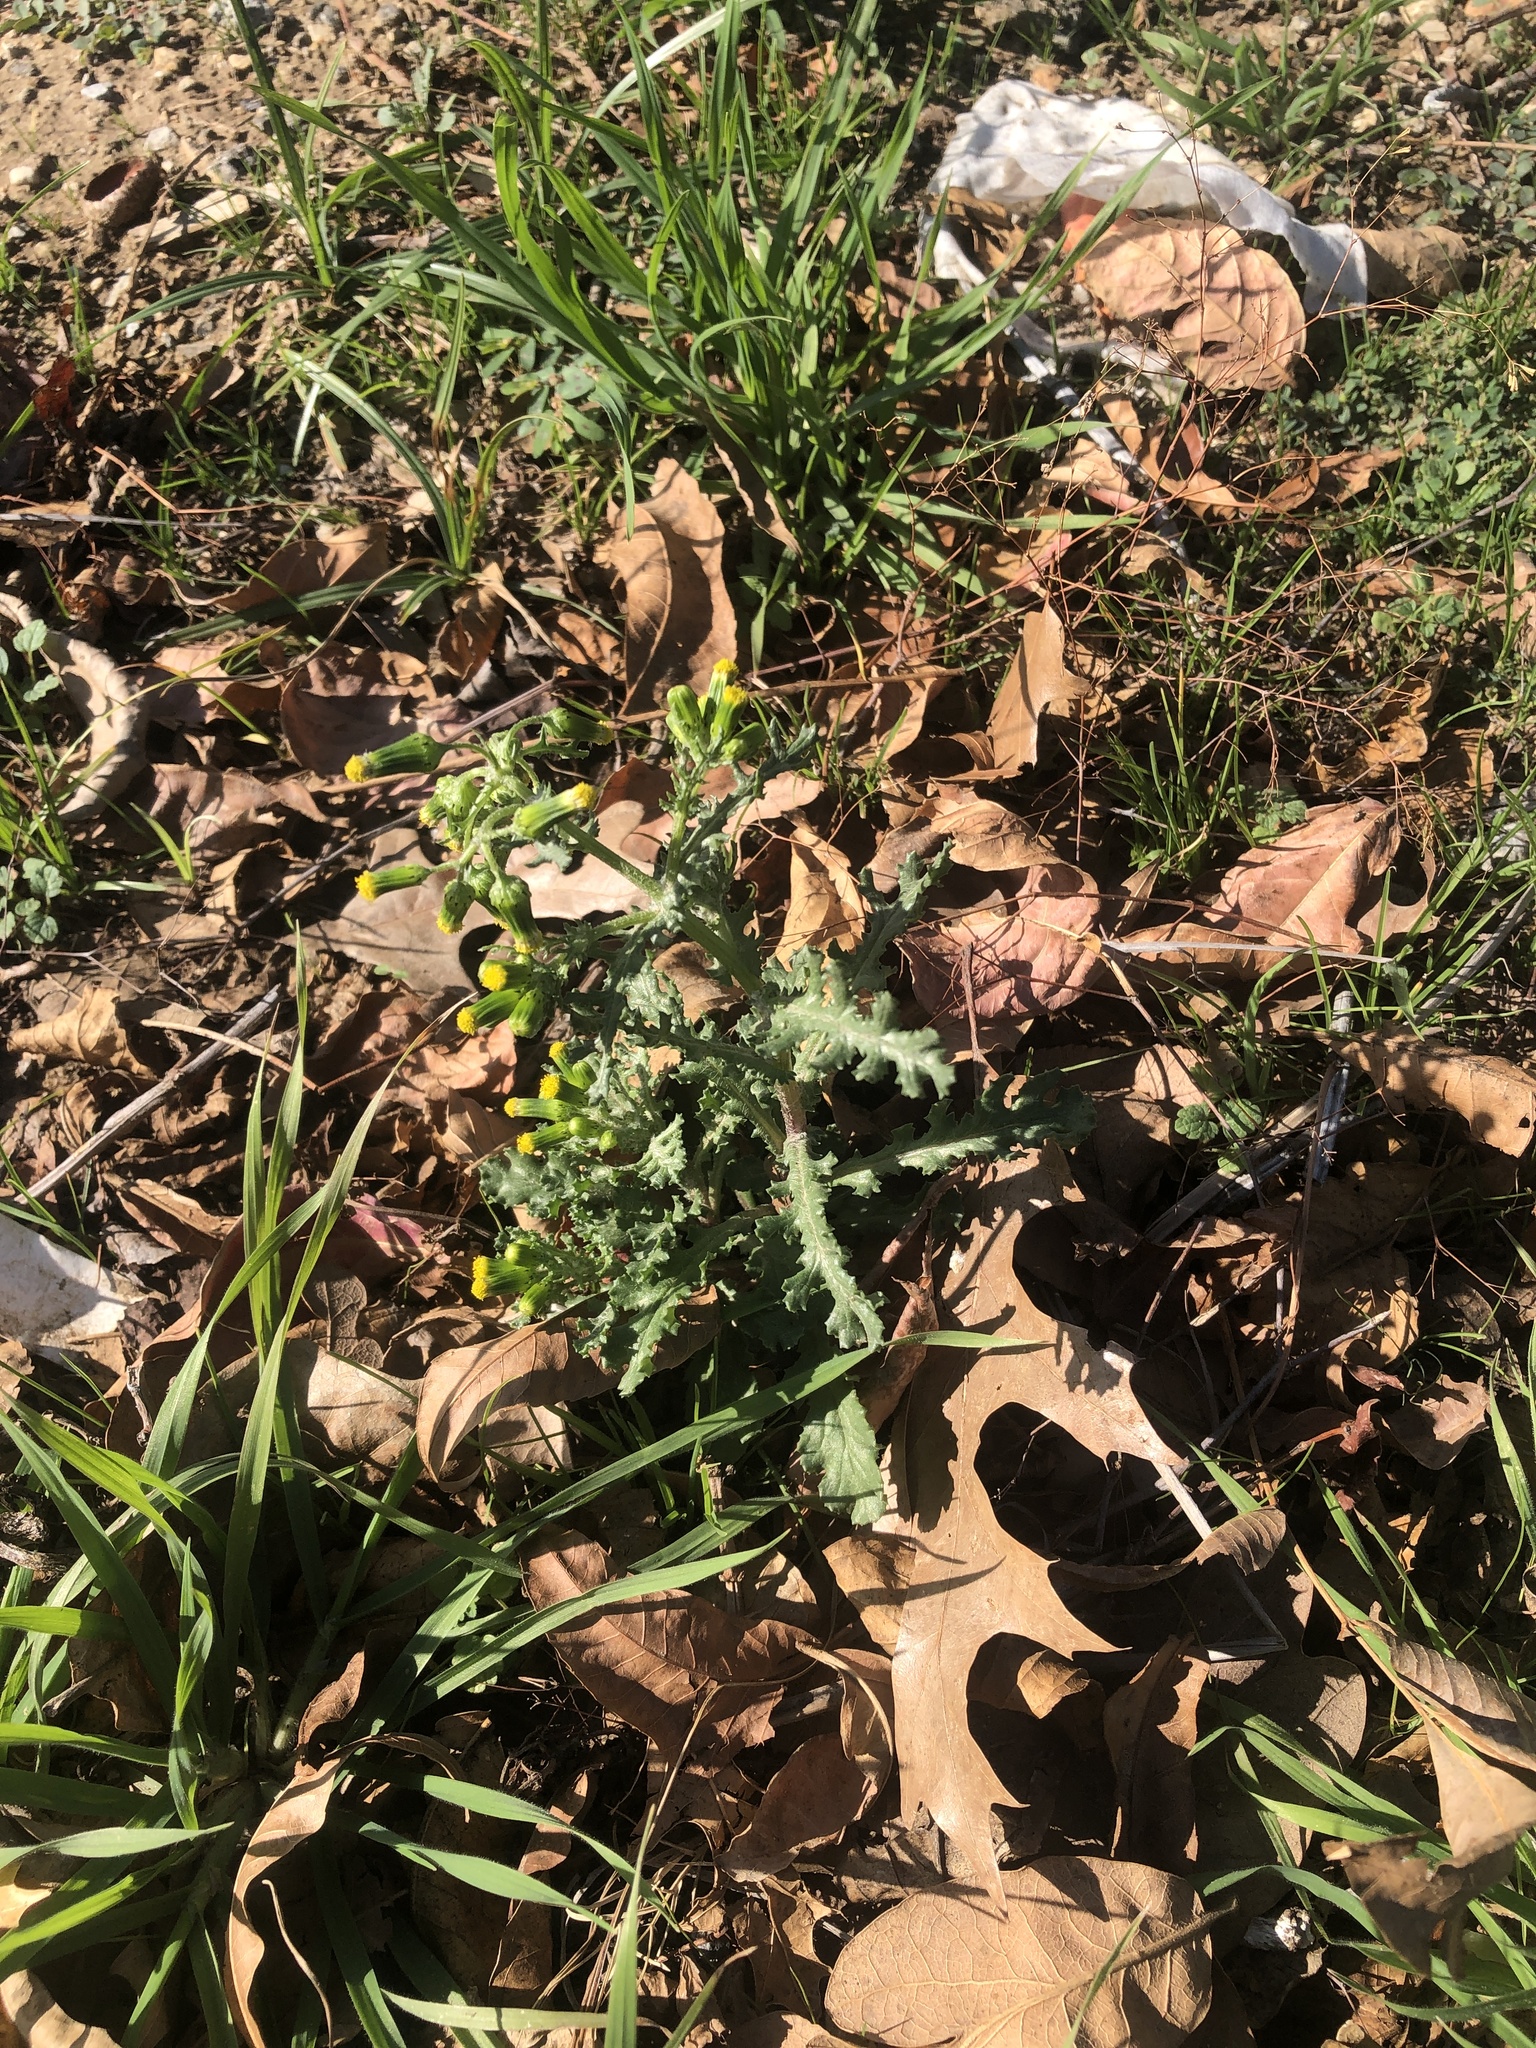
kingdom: Plantae
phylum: Tracheophyta
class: Magnoliopsida
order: Asterales
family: Asteraceae
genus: Senecio
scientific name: Senecio vulgaris
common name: Old-man-in-the-spring
